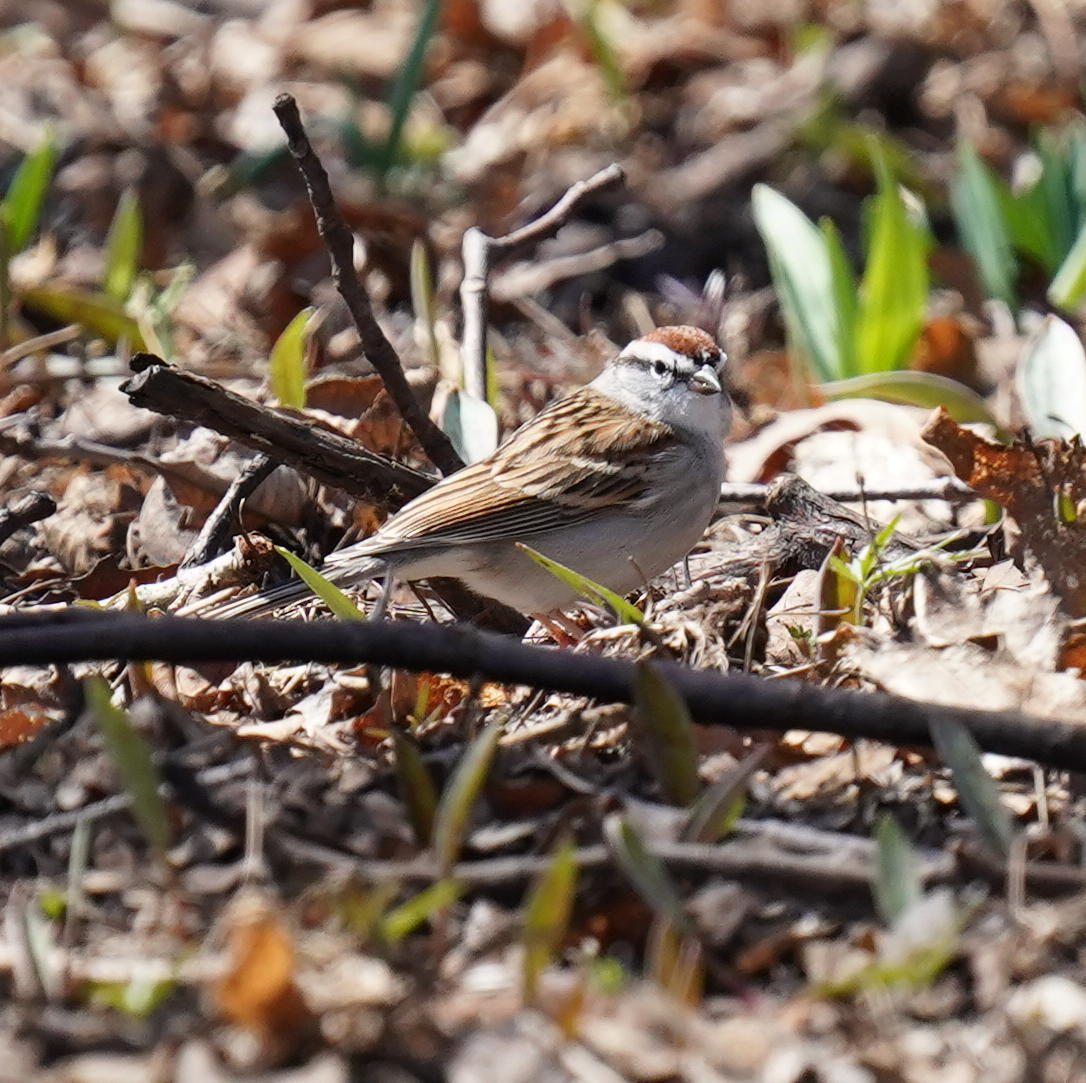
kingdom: Animalia
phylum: Chordata
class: Aves
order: Passeriformes
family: Passerellidae
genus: Spizella
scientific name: Spizella passerina
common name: Chipping sparrow
